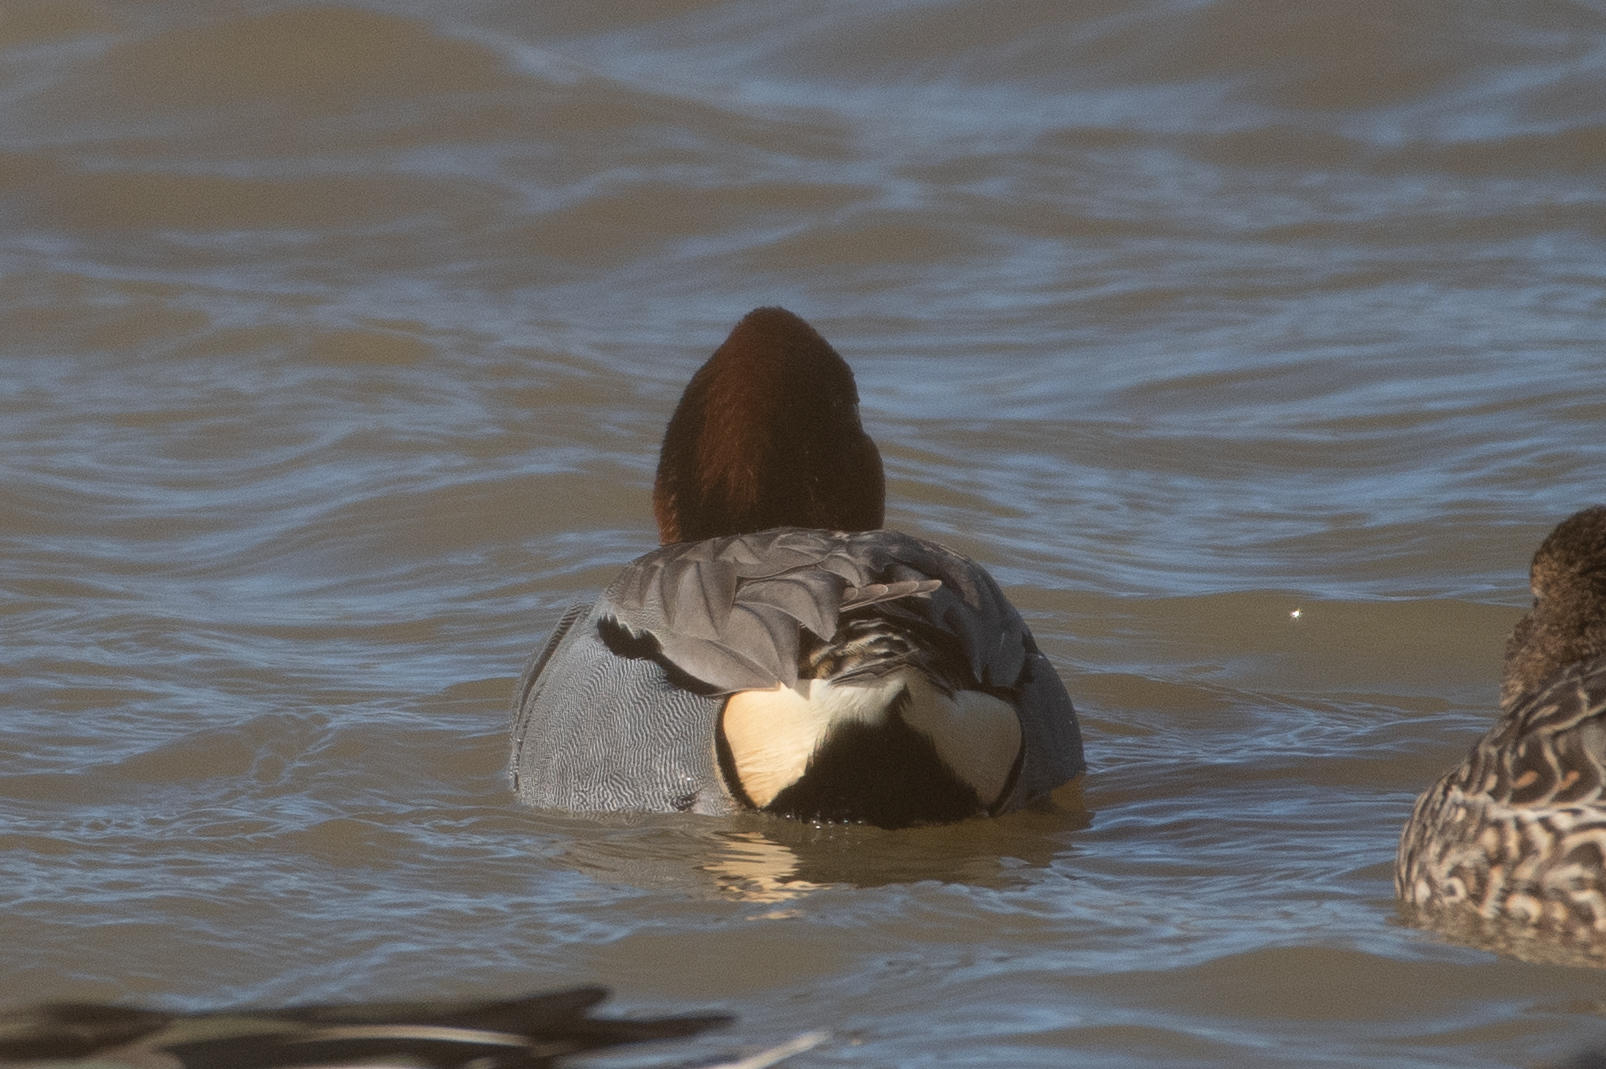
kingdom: Animalia
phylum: Chordata
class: Aves
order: Anseriformes
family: Anatidae
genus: Anas
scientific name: Anas crecca
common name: Eurasian teal
